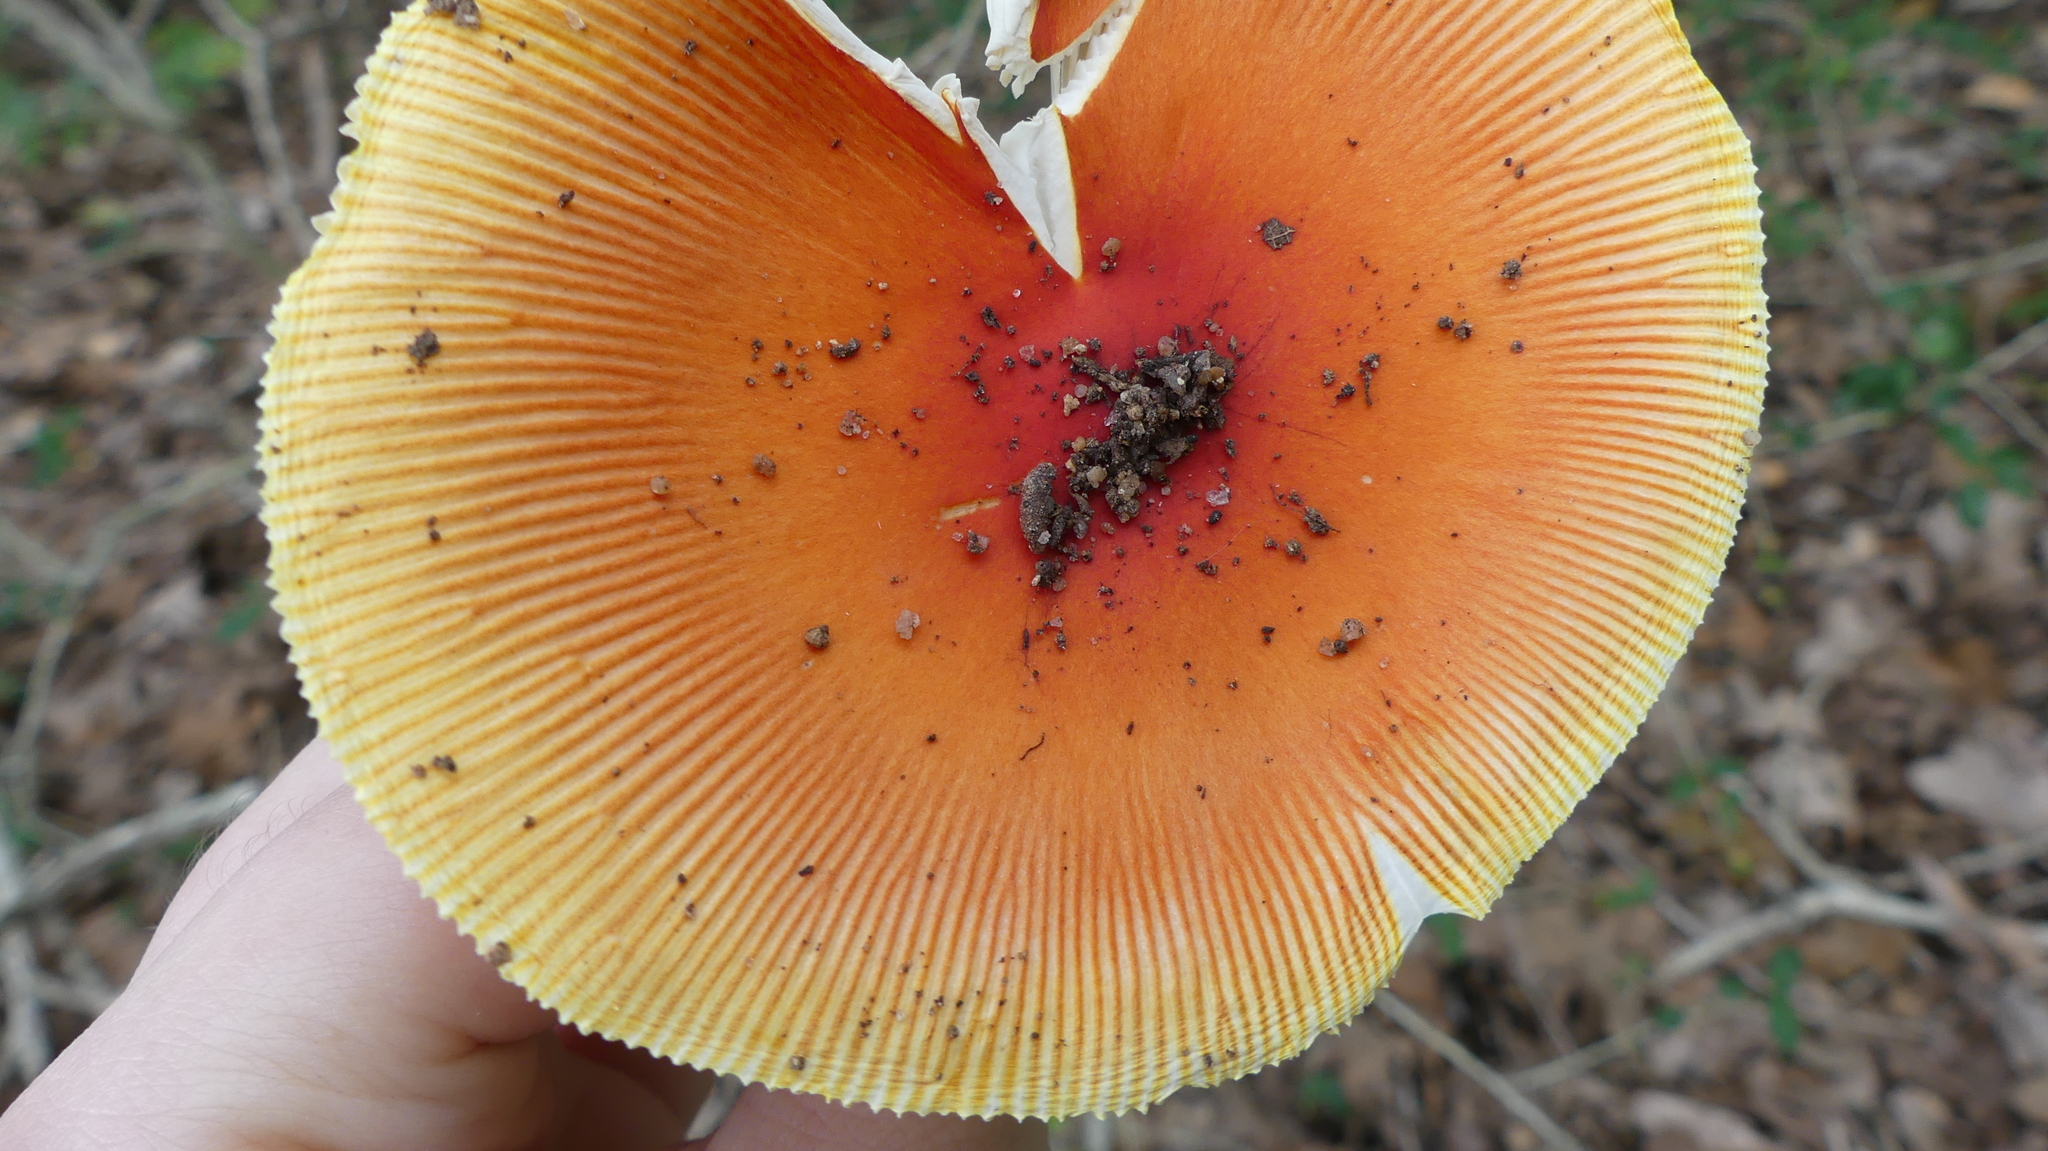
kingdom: Fungi
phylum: Basidiomycota
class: Agaricomycetes
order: Agaricales
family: Amanitaceae
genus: Amanita
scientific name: Amanita jacksonii
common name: Jackson's slender caesar
